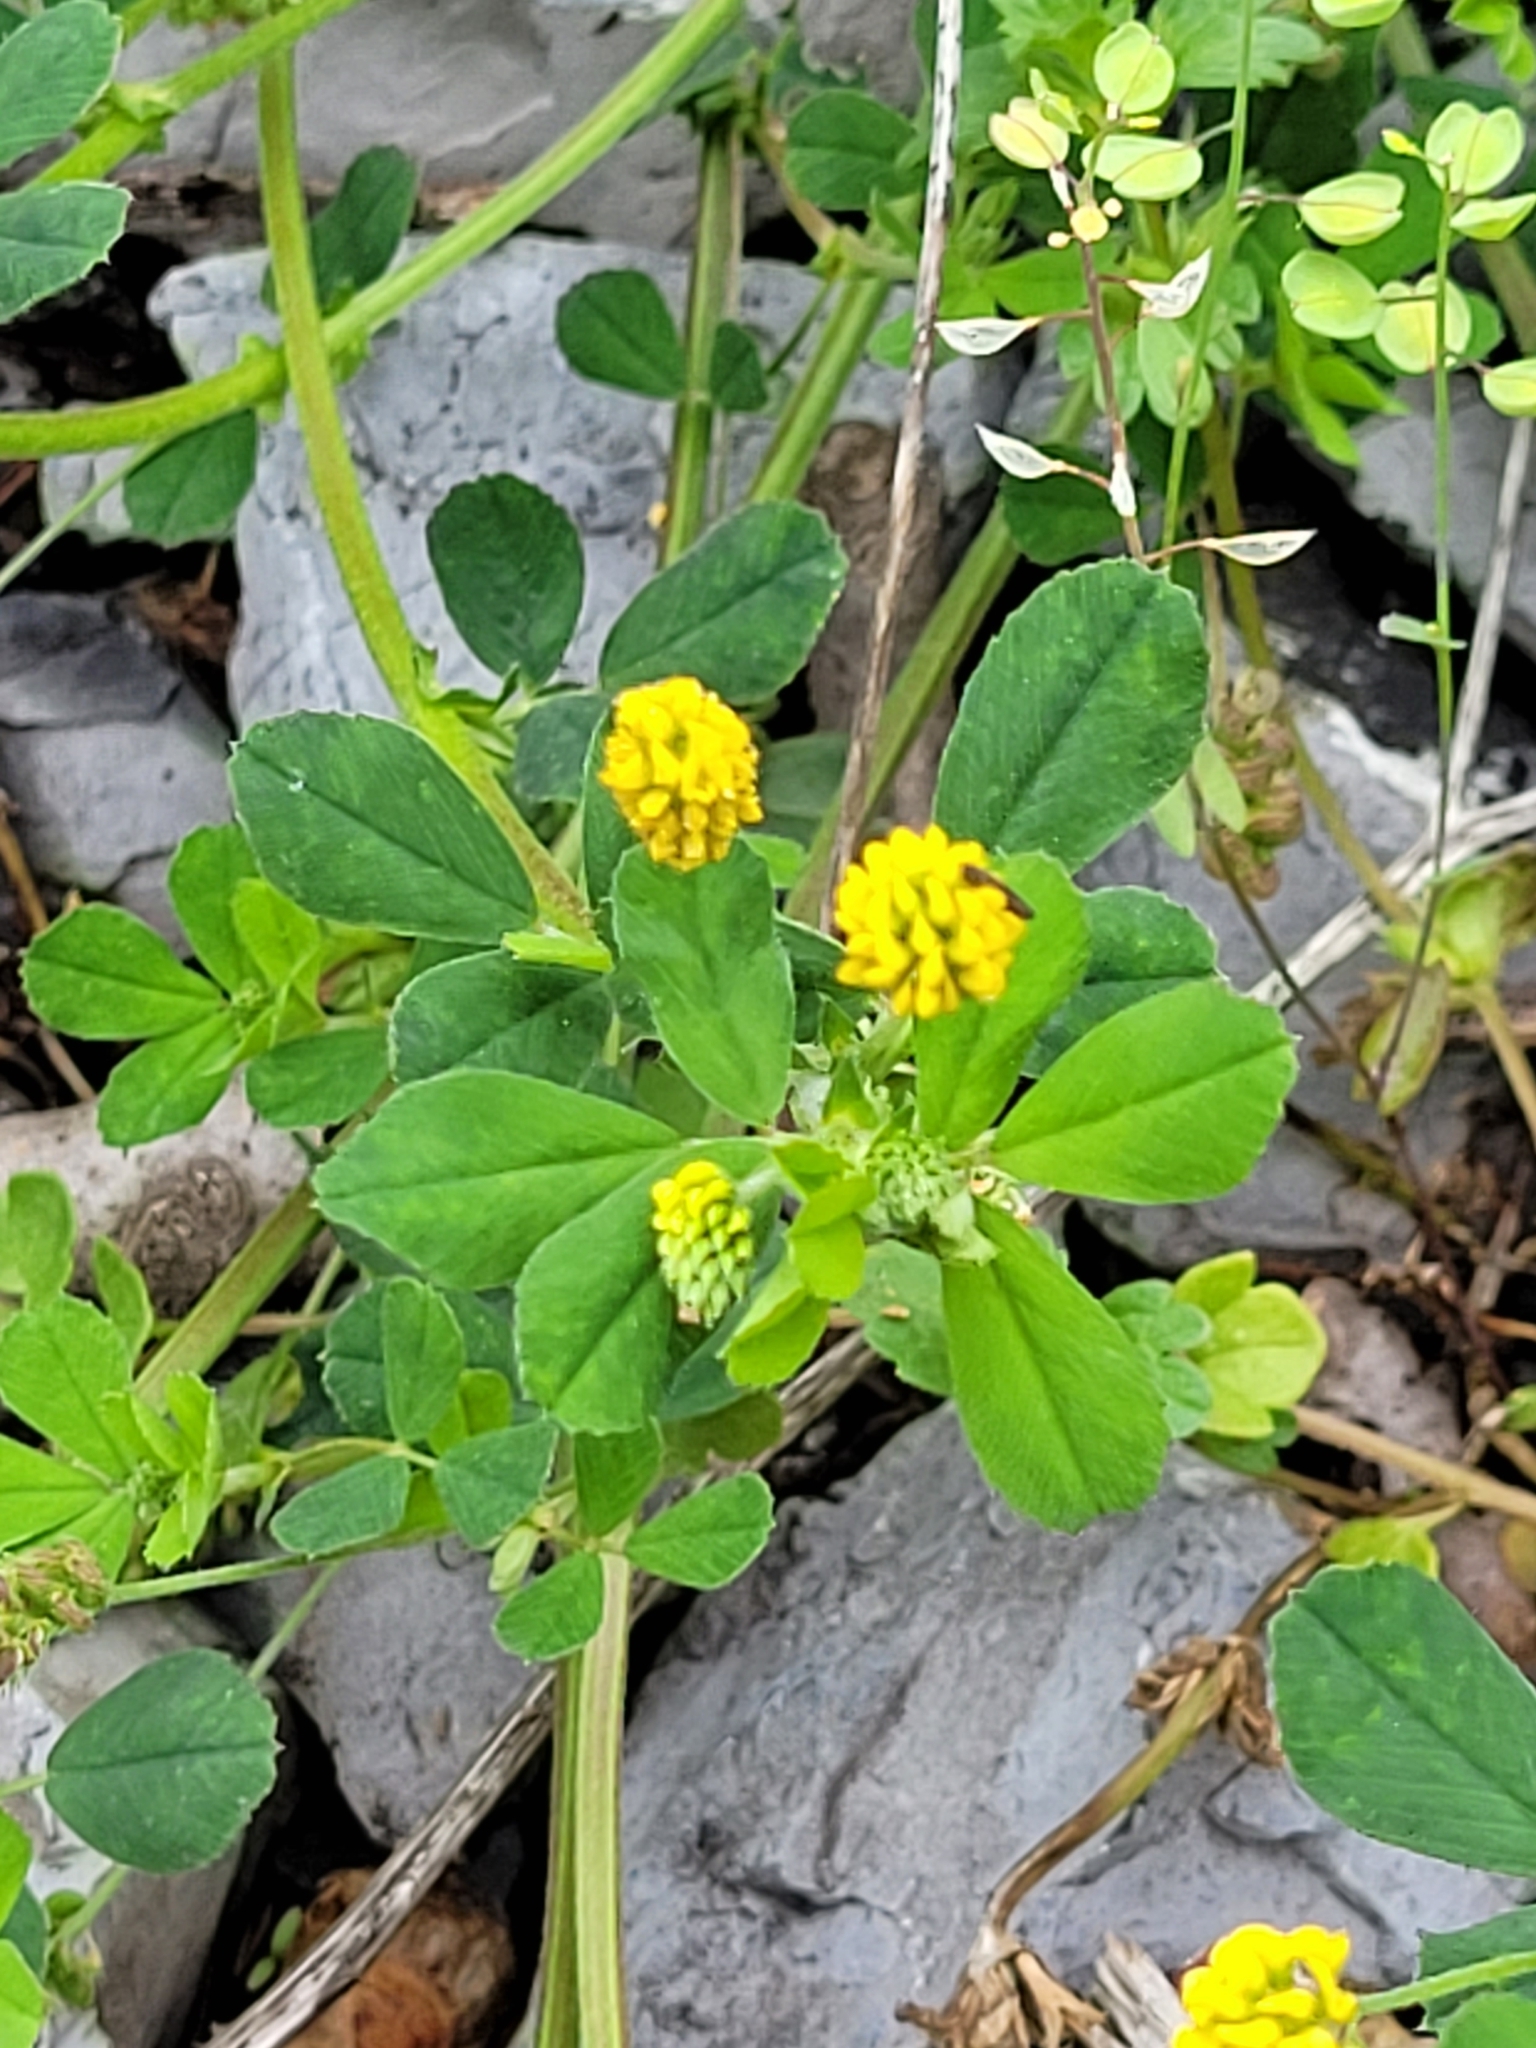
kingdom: Plantae
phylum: Tracheophyta
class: Magnoliopsida
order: Fabales
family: Fabaceae
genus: Medicago
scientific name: Medicago lupulina
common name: Black medick
